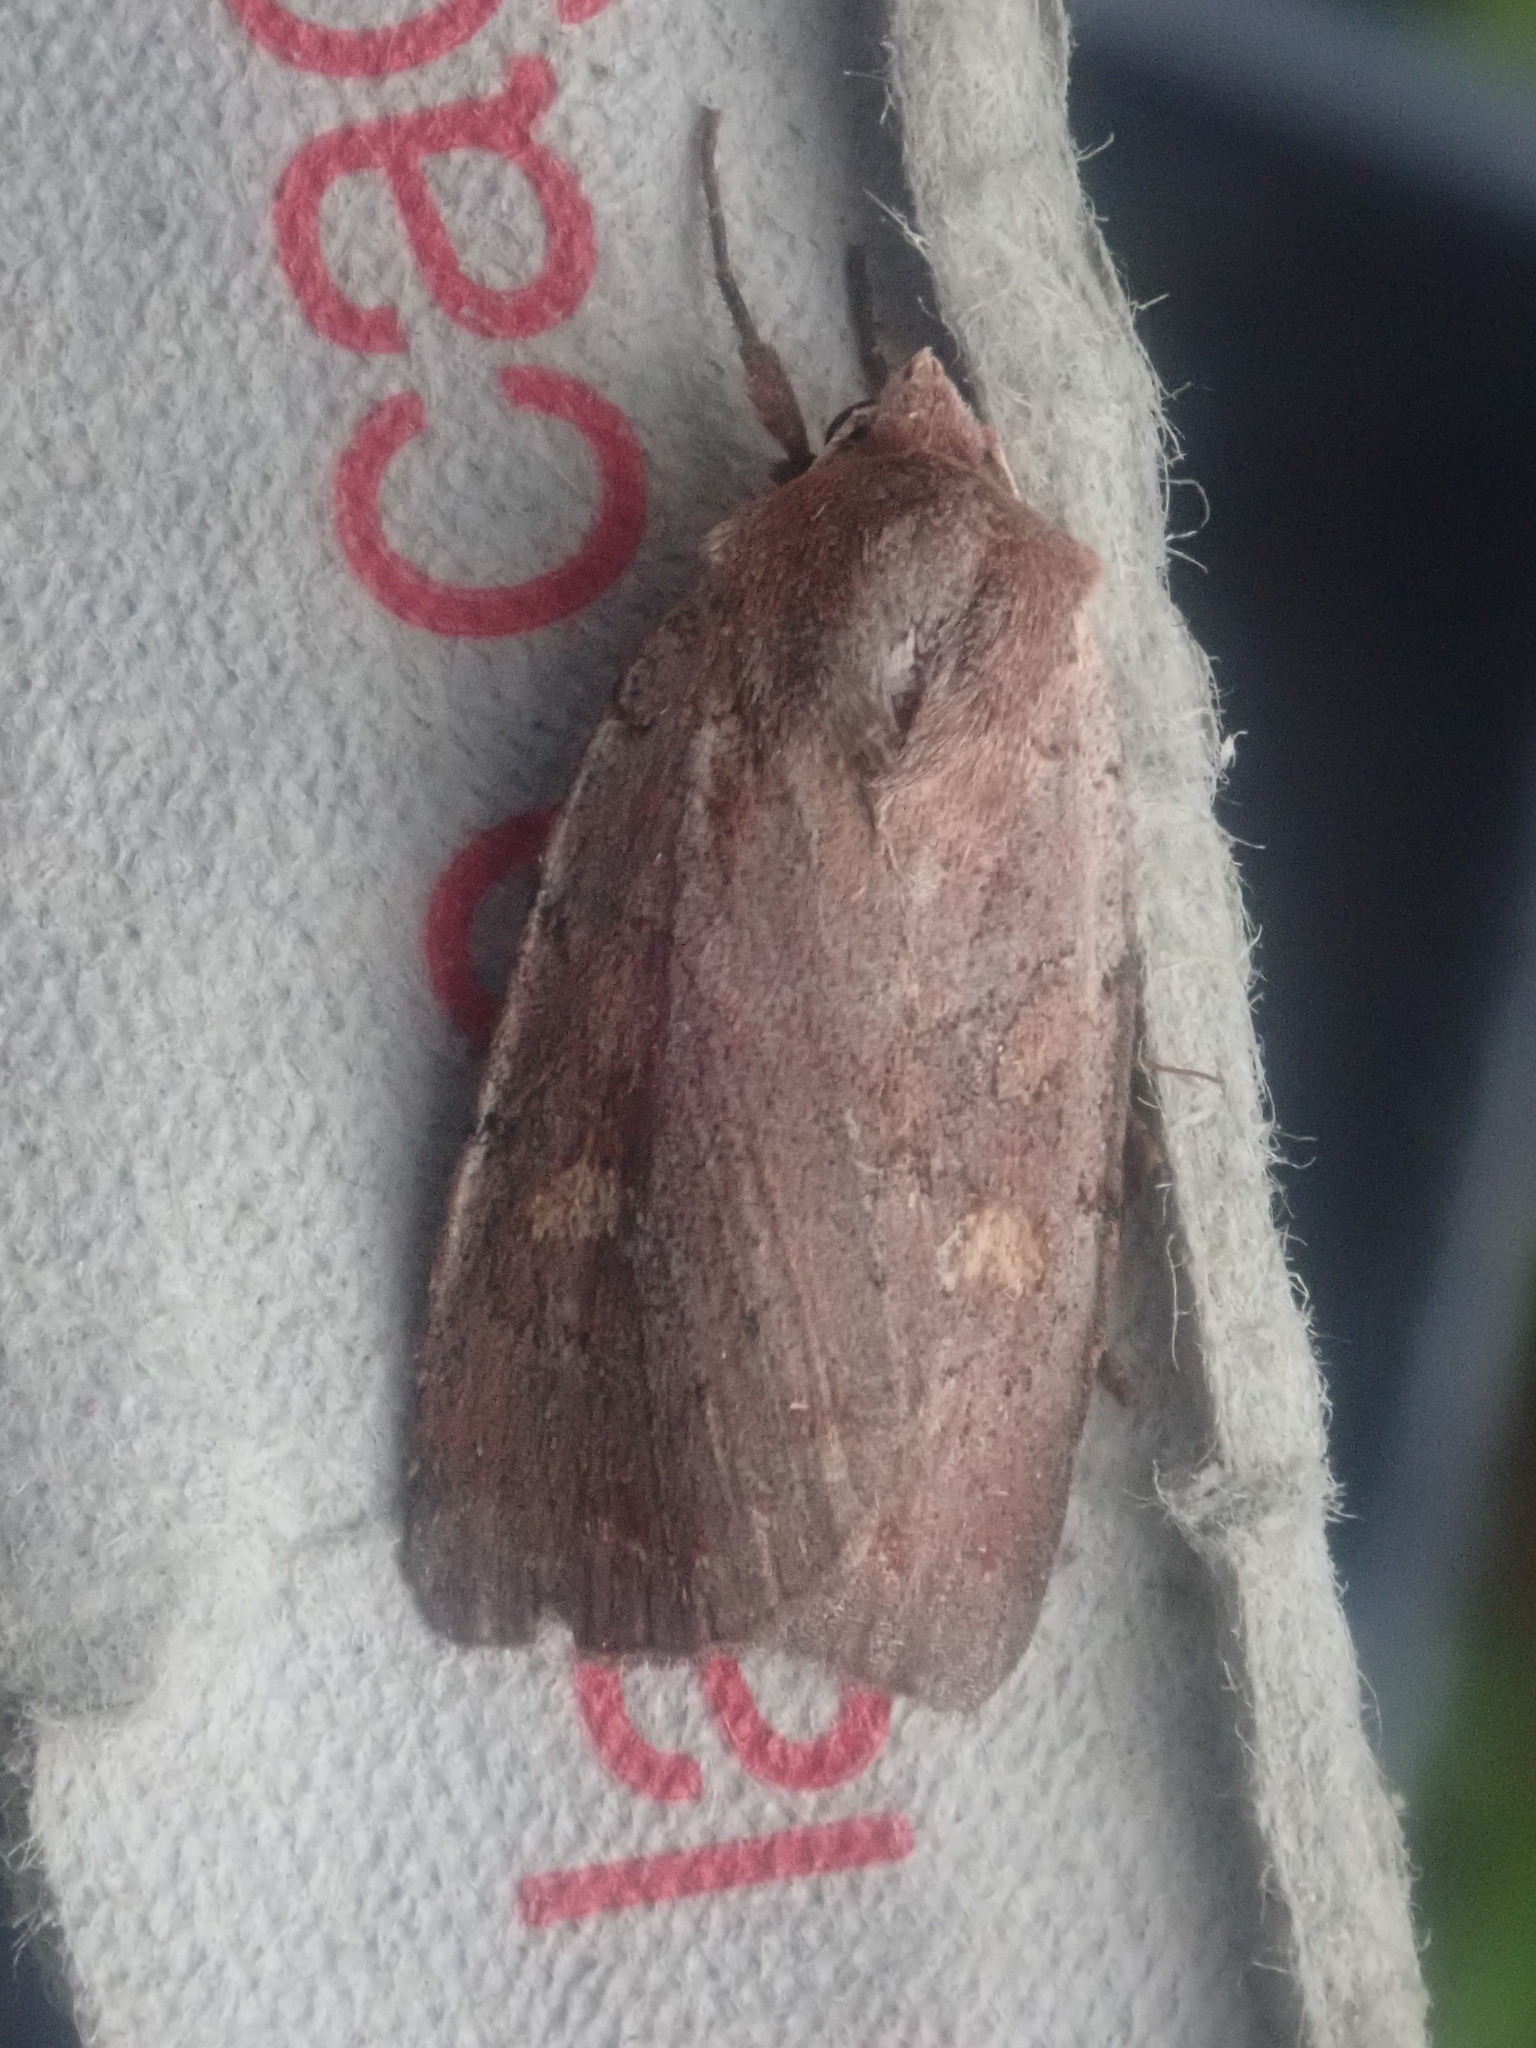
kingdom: Animalia
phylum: Arthropoda
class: Insecta
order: Lepidoptera
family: Noctuidae
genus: Xestia
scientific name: Xestia dilucida
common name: Dull reddish dart
